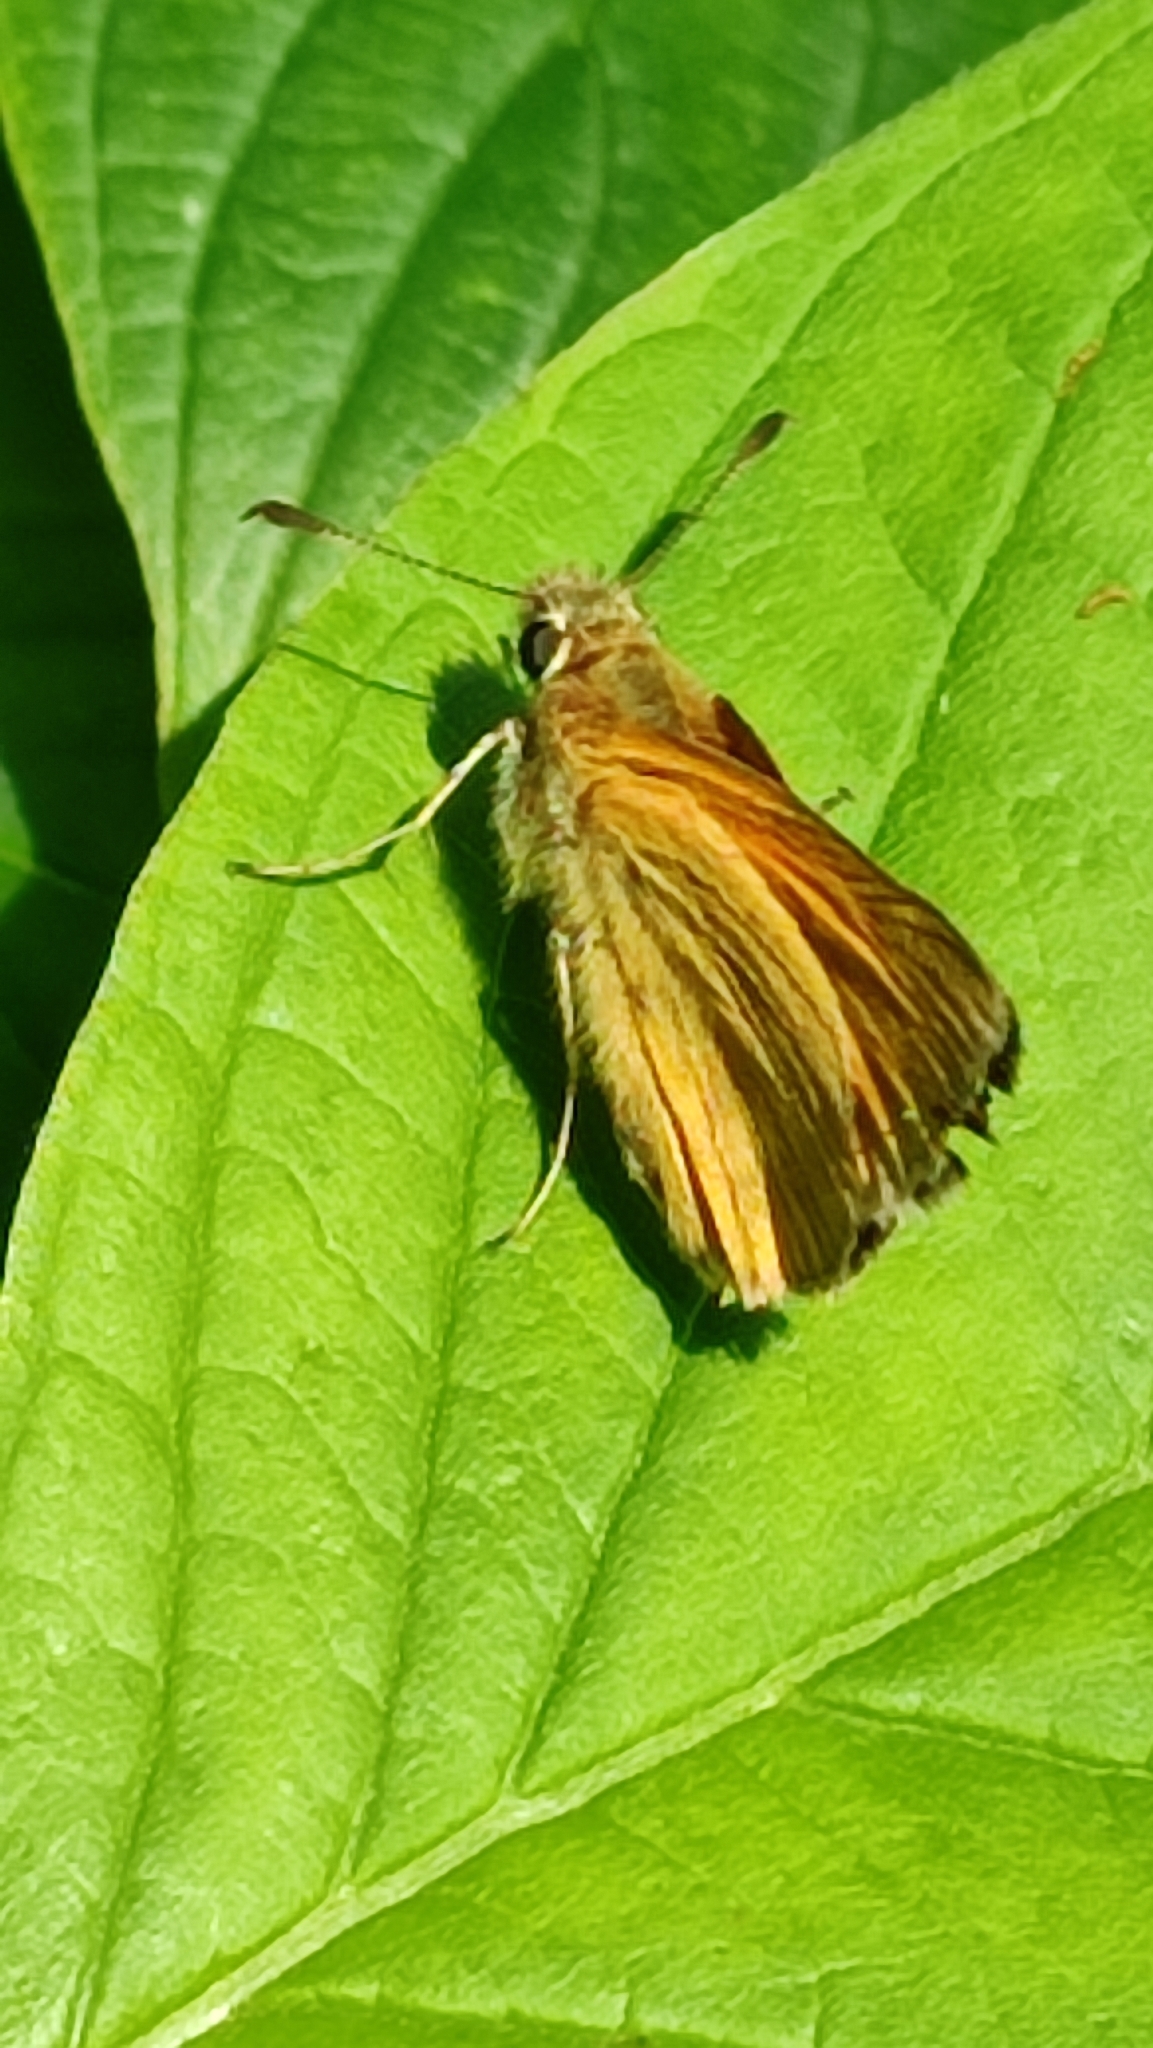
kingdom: Animalia
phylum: Arthropoda
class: Insecta
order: Lepidoptera
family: Hesperiidae
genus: Ochlodes
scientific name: Ochlodes venata
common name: Large skipper
